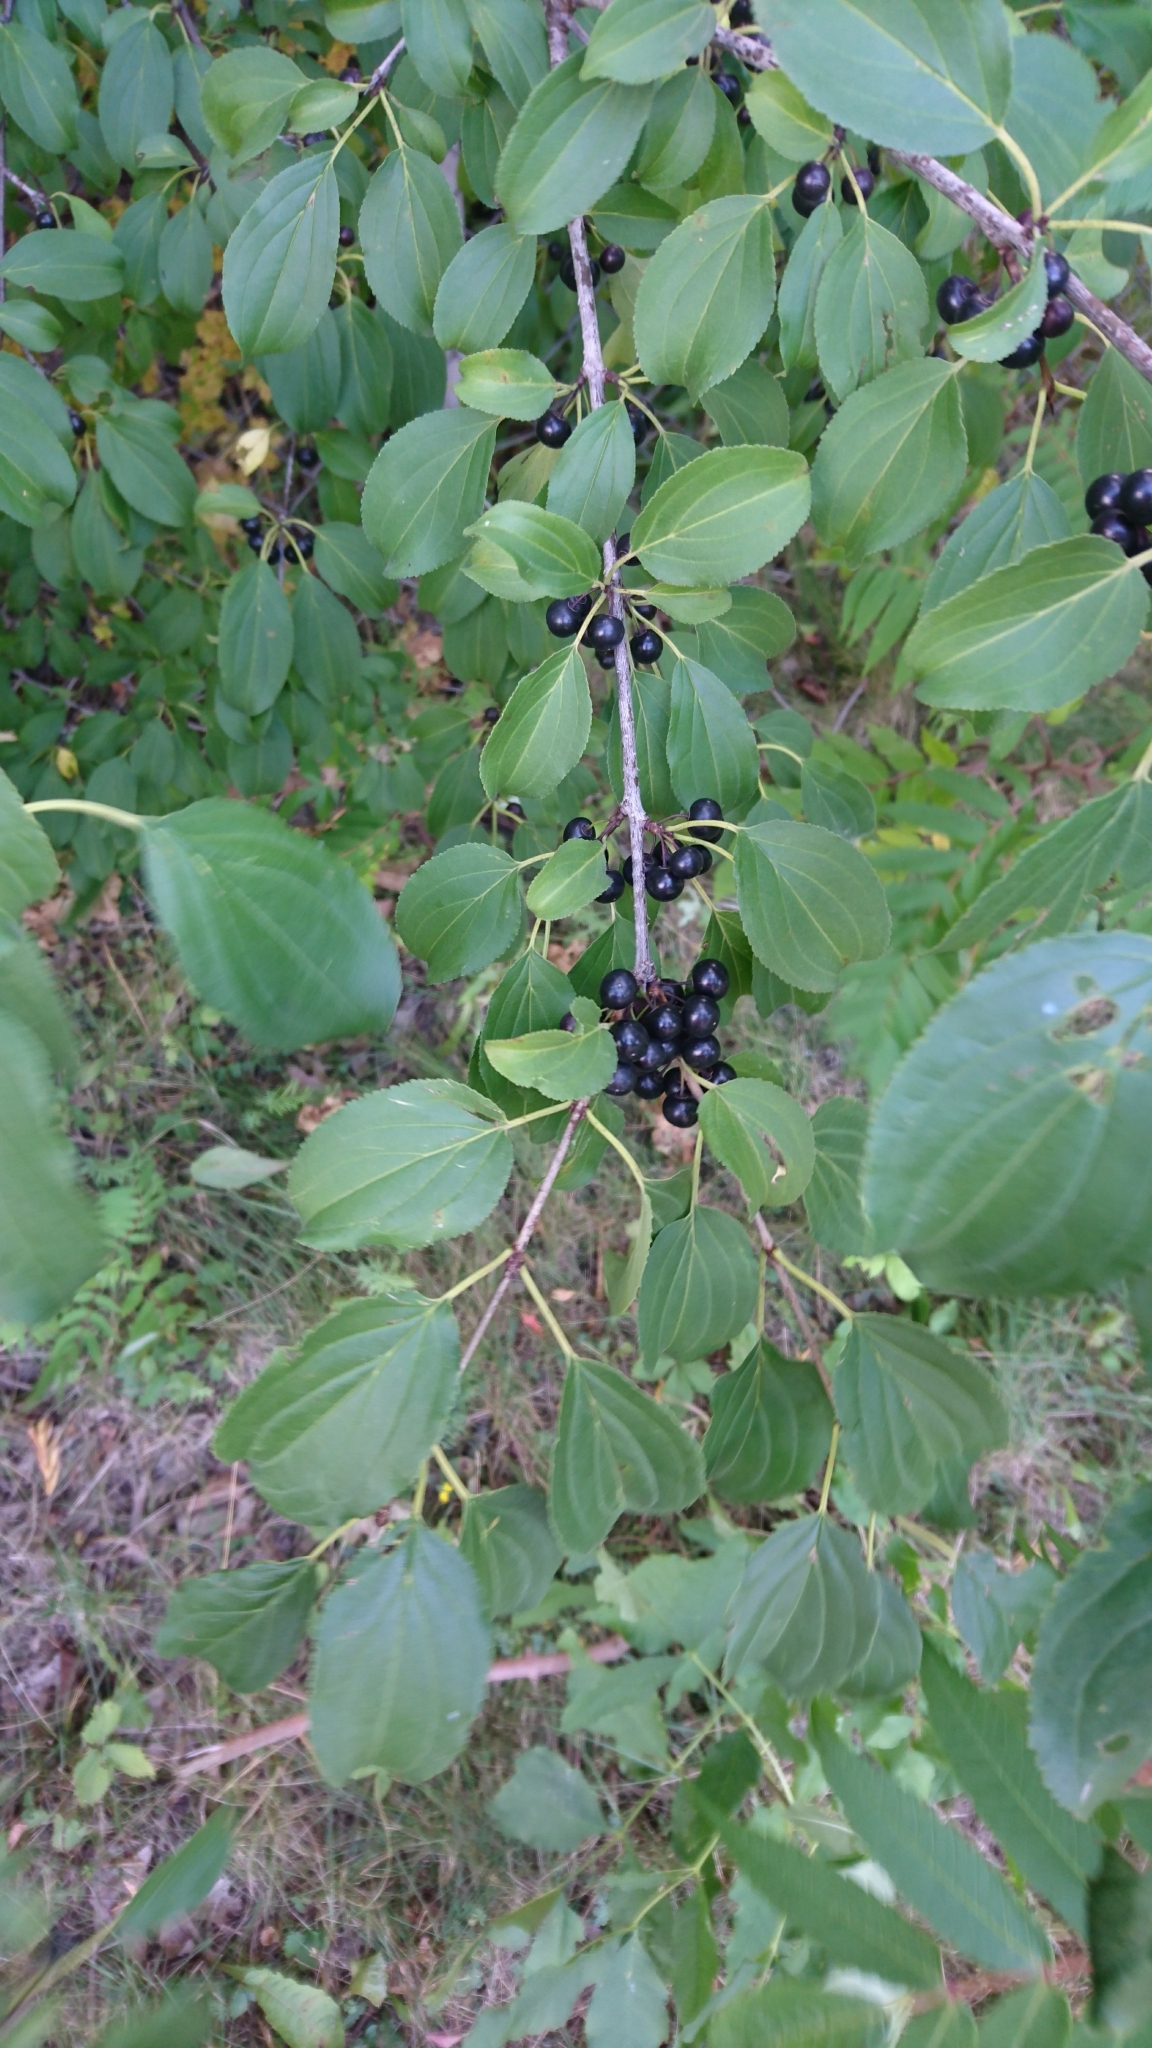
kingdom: Plantae
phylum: Tracheophyta
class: Magnoliopsida
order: Rosales
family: Rhamnaceae
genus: Rhamnus
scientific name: Rhamnus cathartica
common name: Common buckthorn
